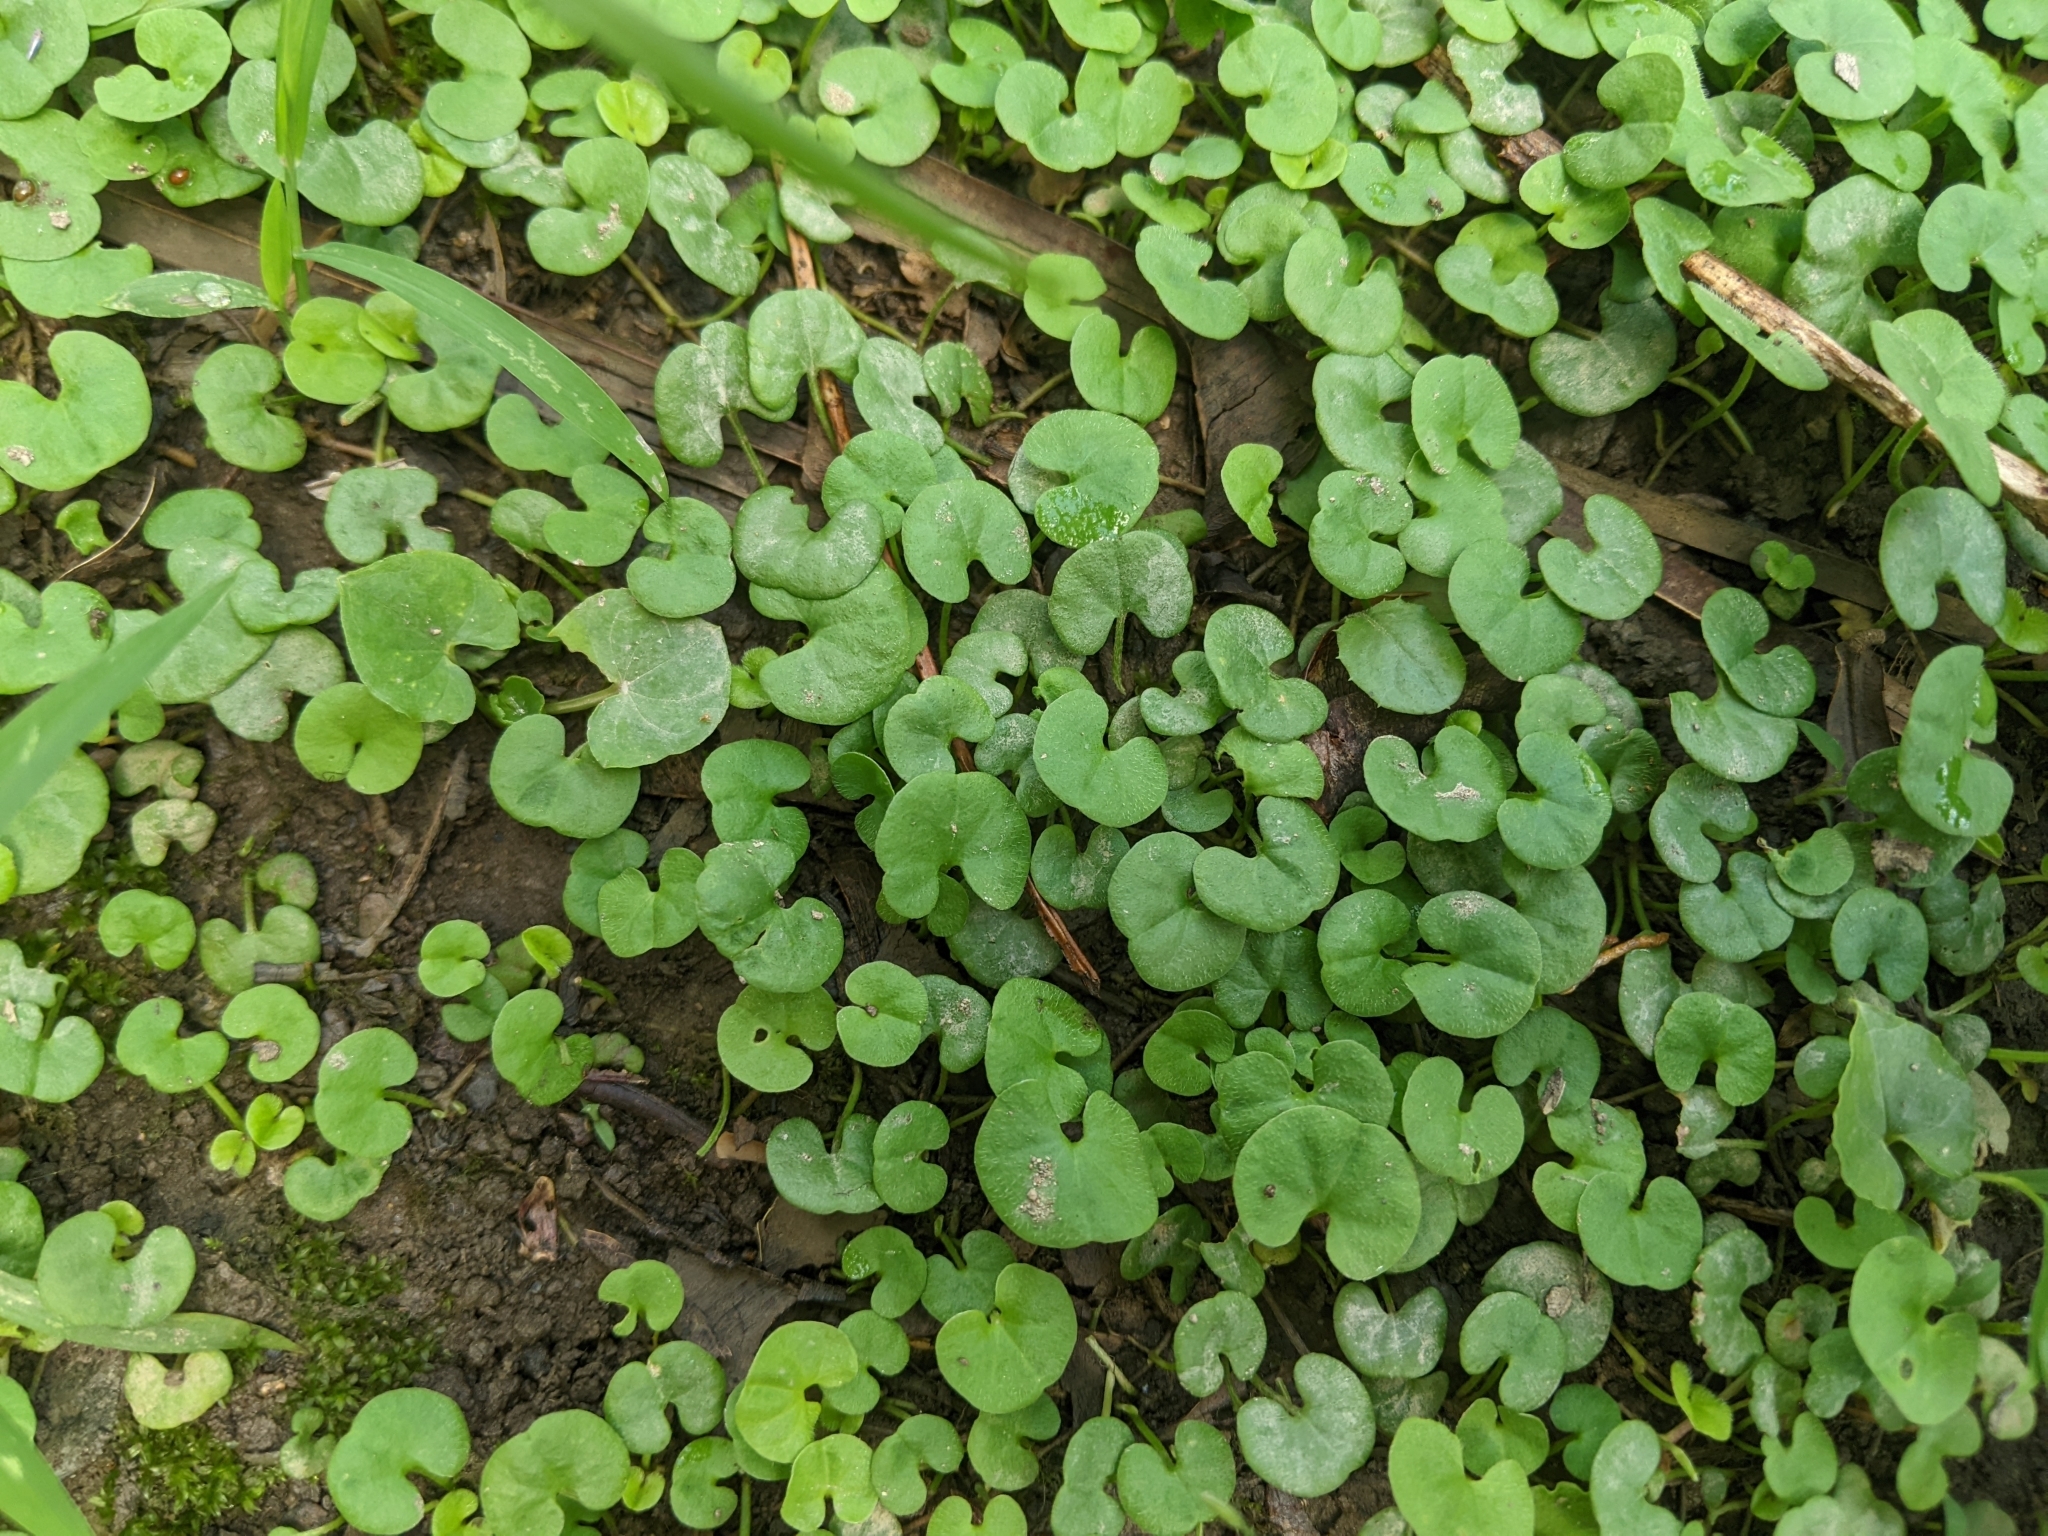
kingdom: Plantae
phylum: Tracheophyta
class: Magnoliopsida
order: Solanales
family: Convolvulaceae
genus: Dichondra
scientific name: Dichondra micrantha
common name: Kidneyweed
